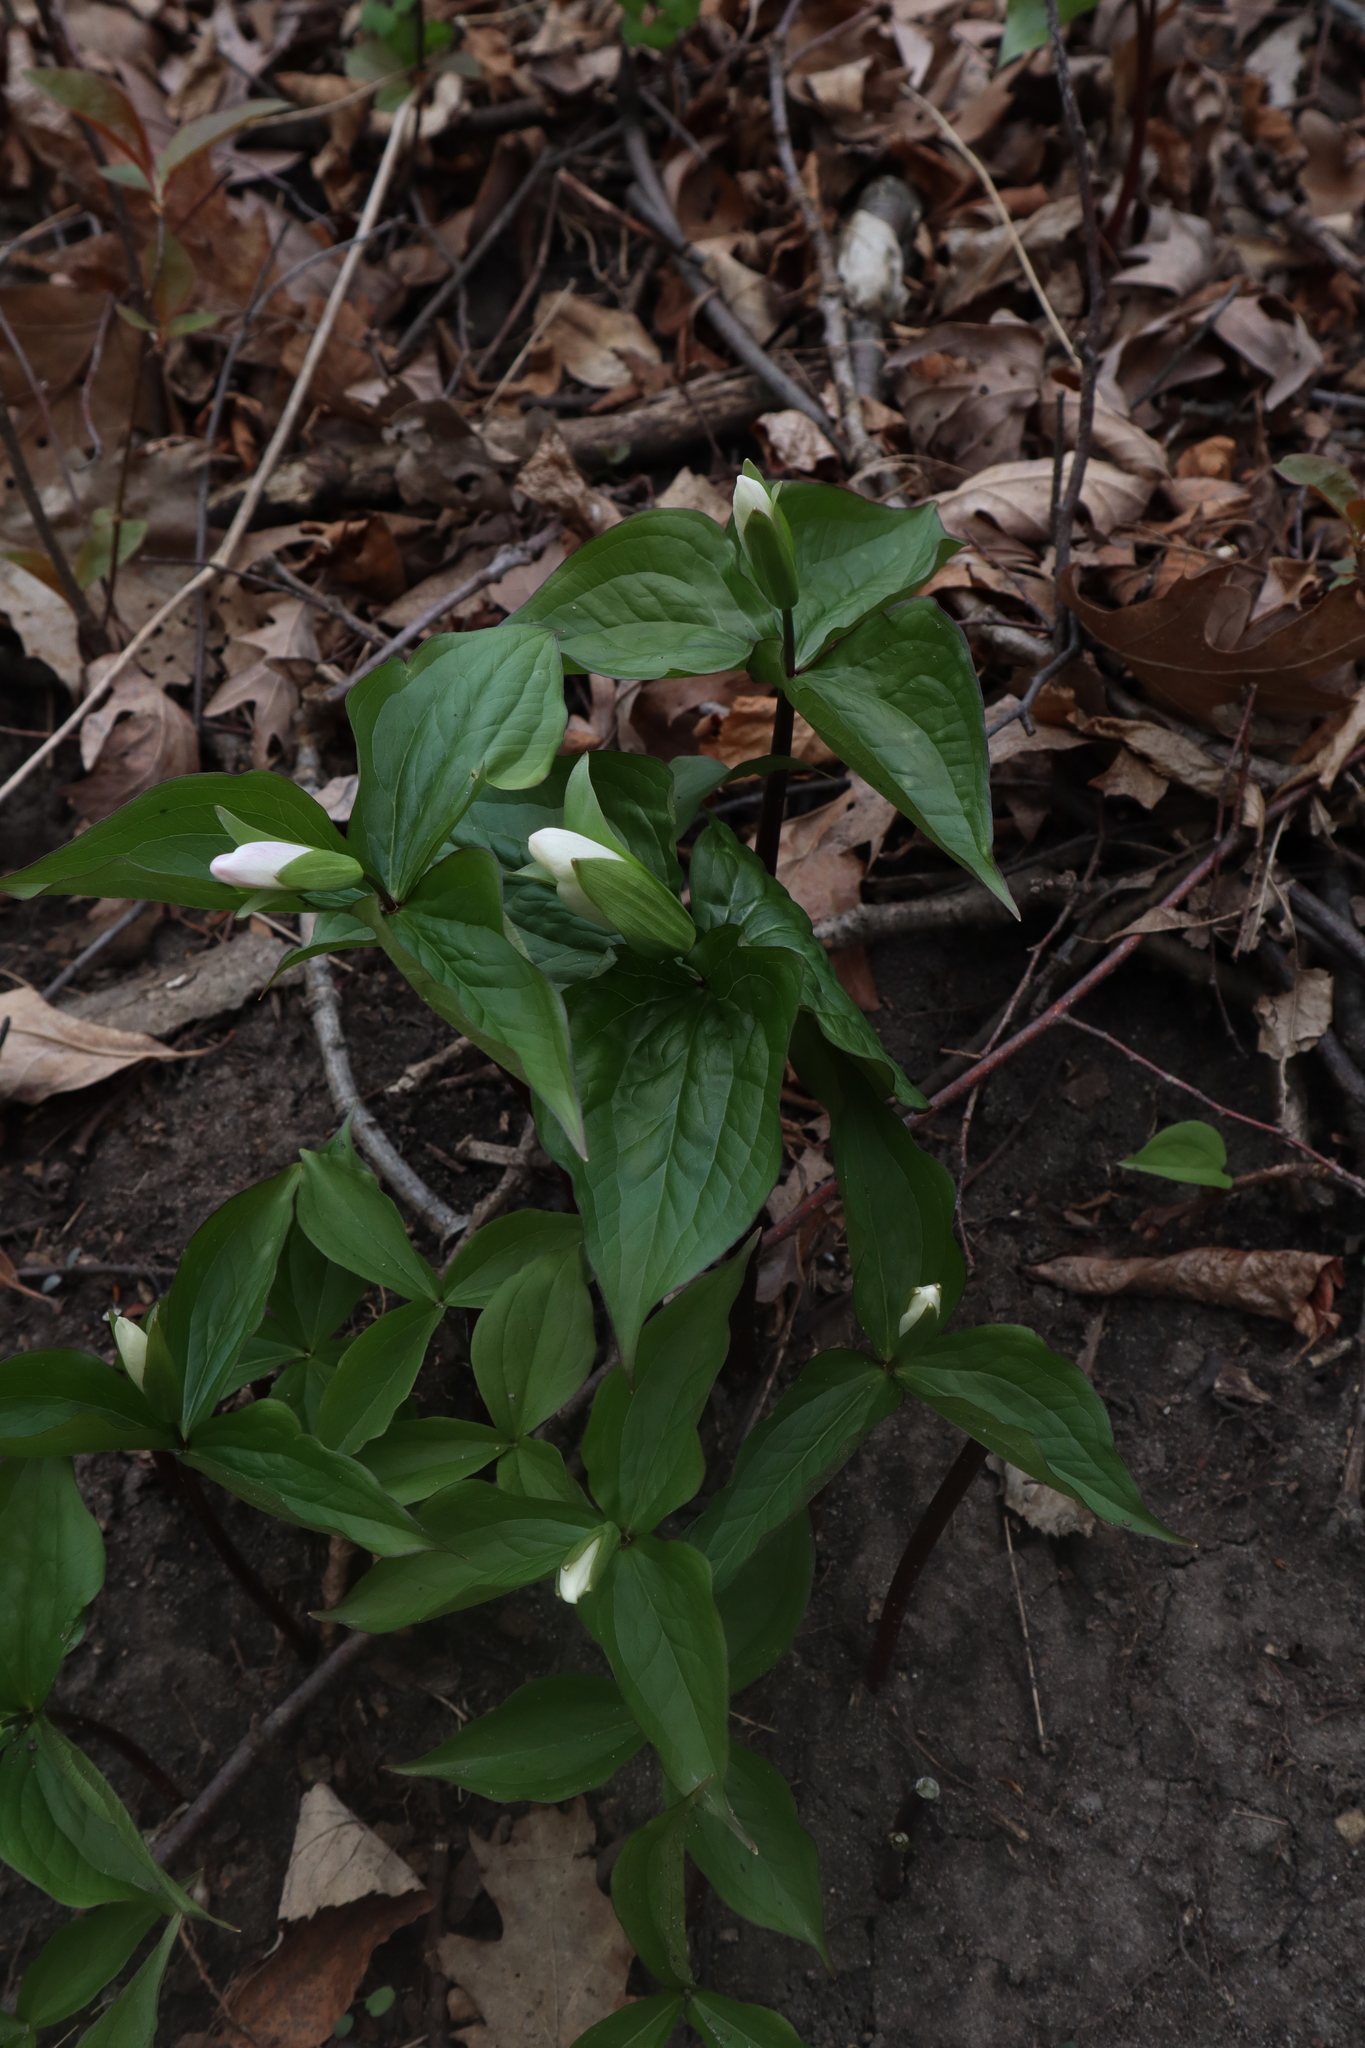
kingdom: Plantae
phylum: Tracheophyta
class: Liliopsida
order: Liliales
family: Melanthiaceae
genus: Trillium
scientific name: Trillium grandiflorum
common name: Great white trillium
